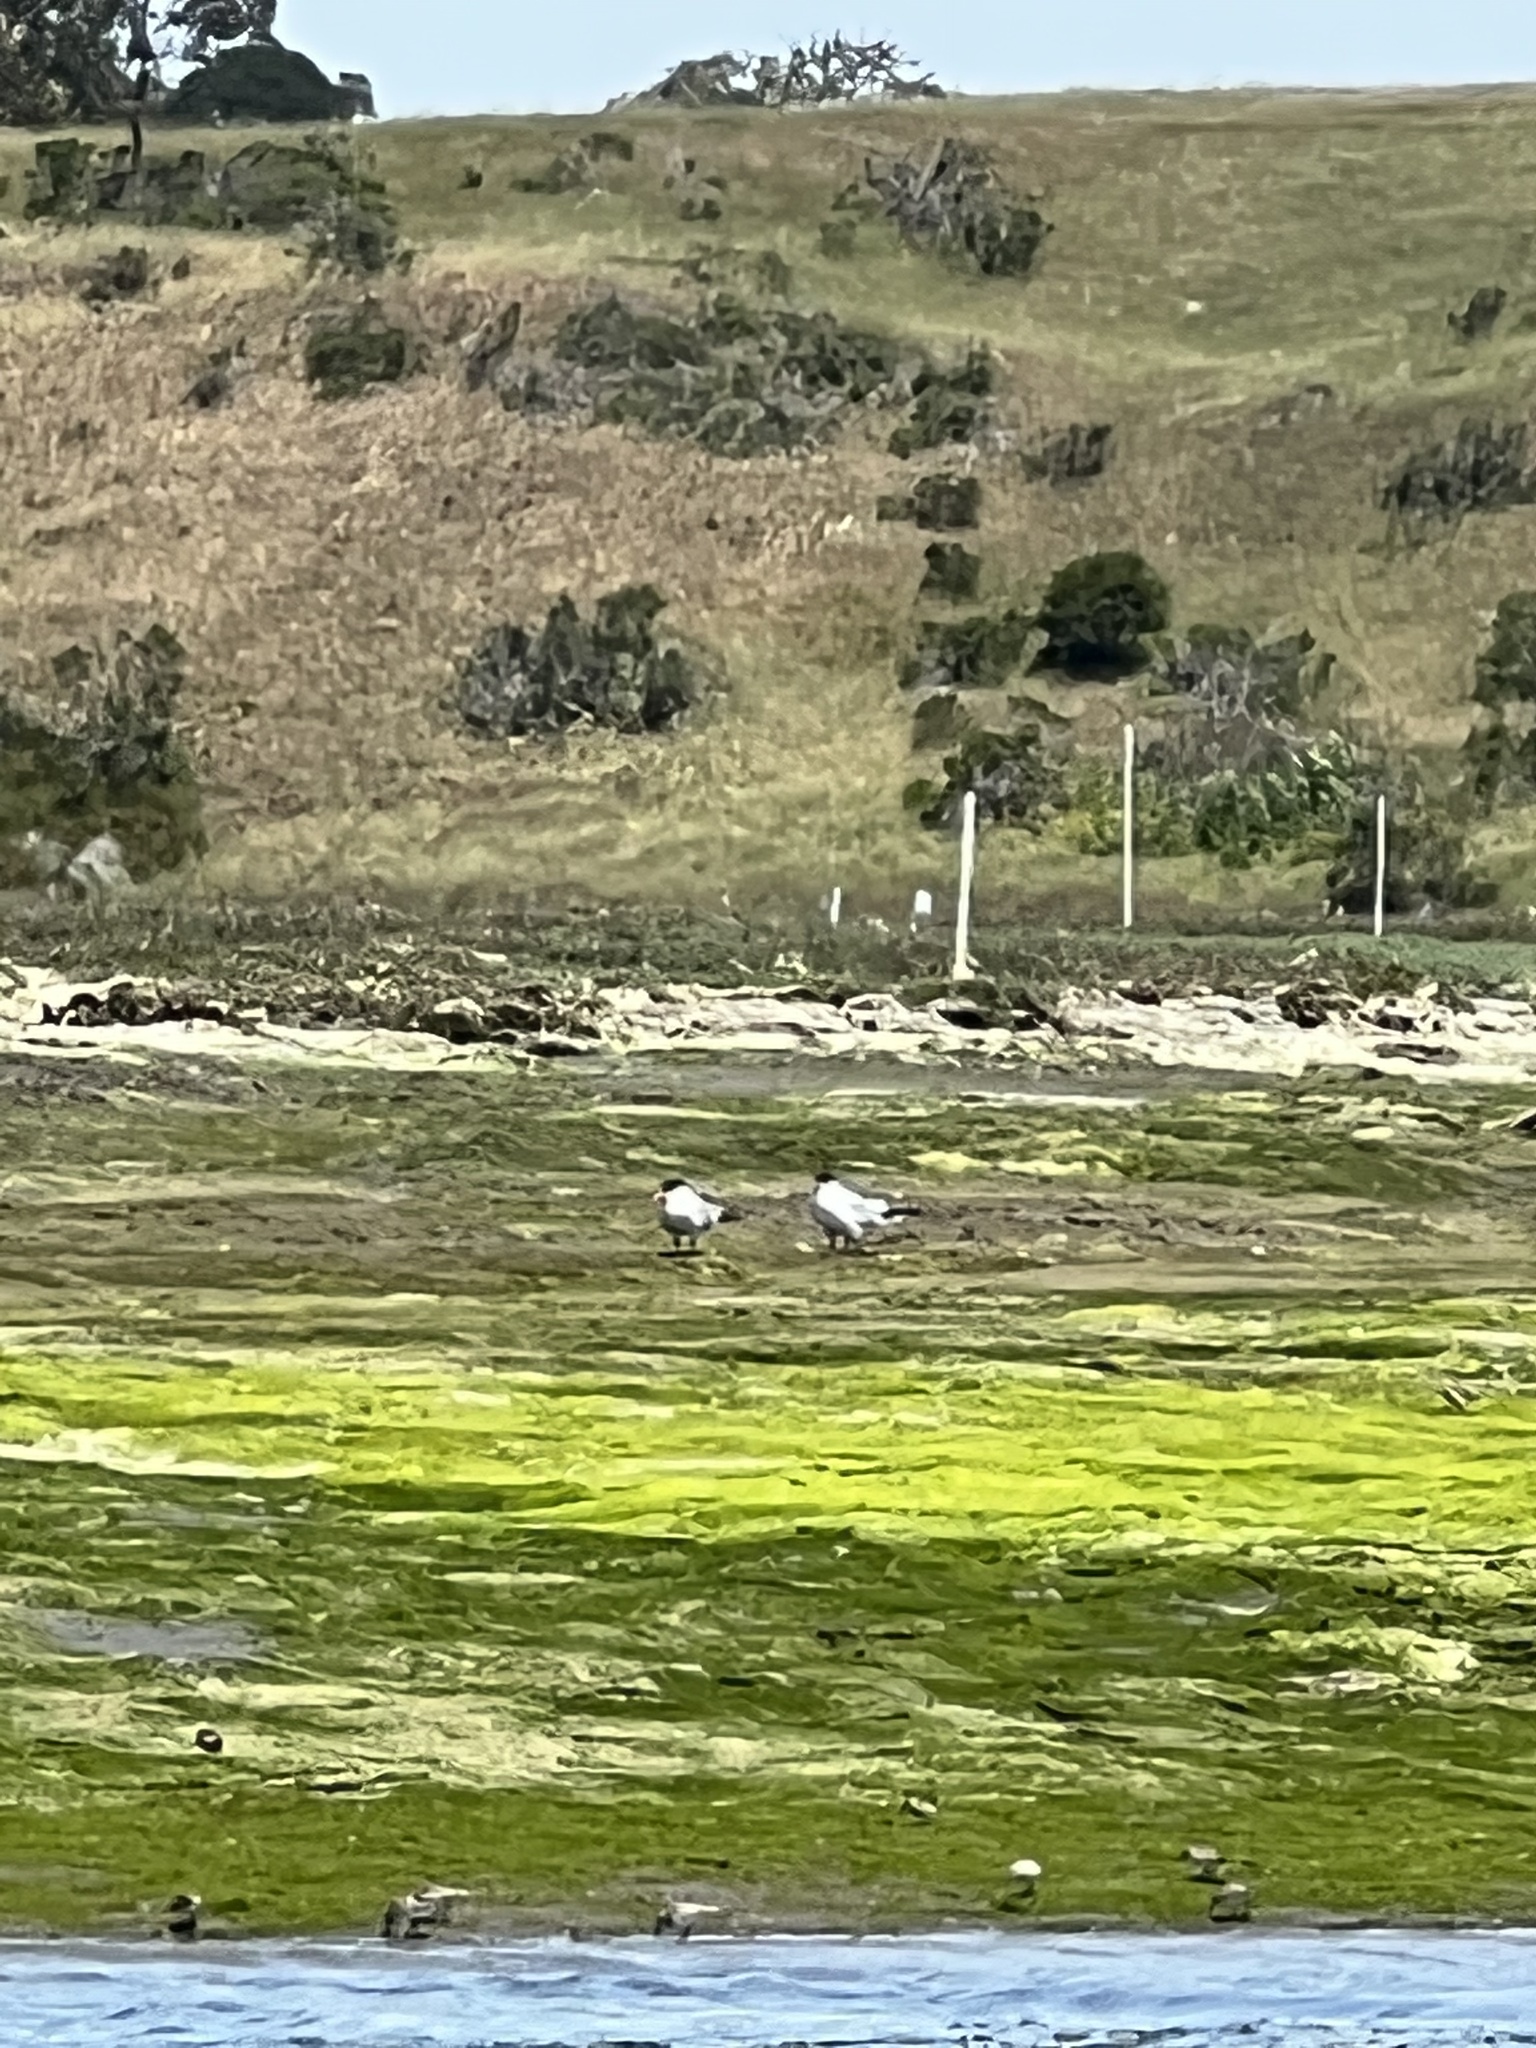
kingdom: Animalia
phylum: Chordata
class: Aves
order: Charadriiformes
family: Laridae
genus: Hydroprogne
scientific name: Hydroprogne caspia
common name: Caspian tern
